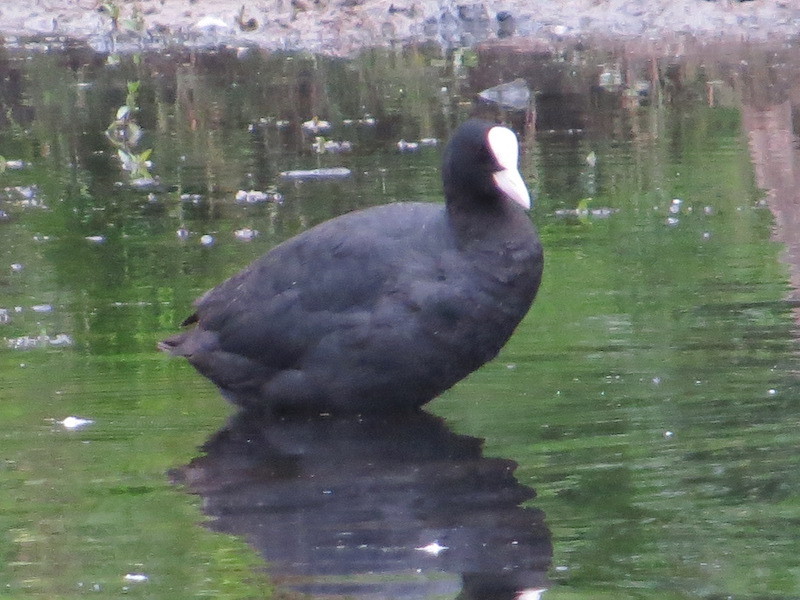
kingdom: Animalia
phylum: Chordata
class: Aves
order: Gruiformes
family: Rallidae
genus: Fulica
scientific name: Fulica atra
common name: Eurasian coot
